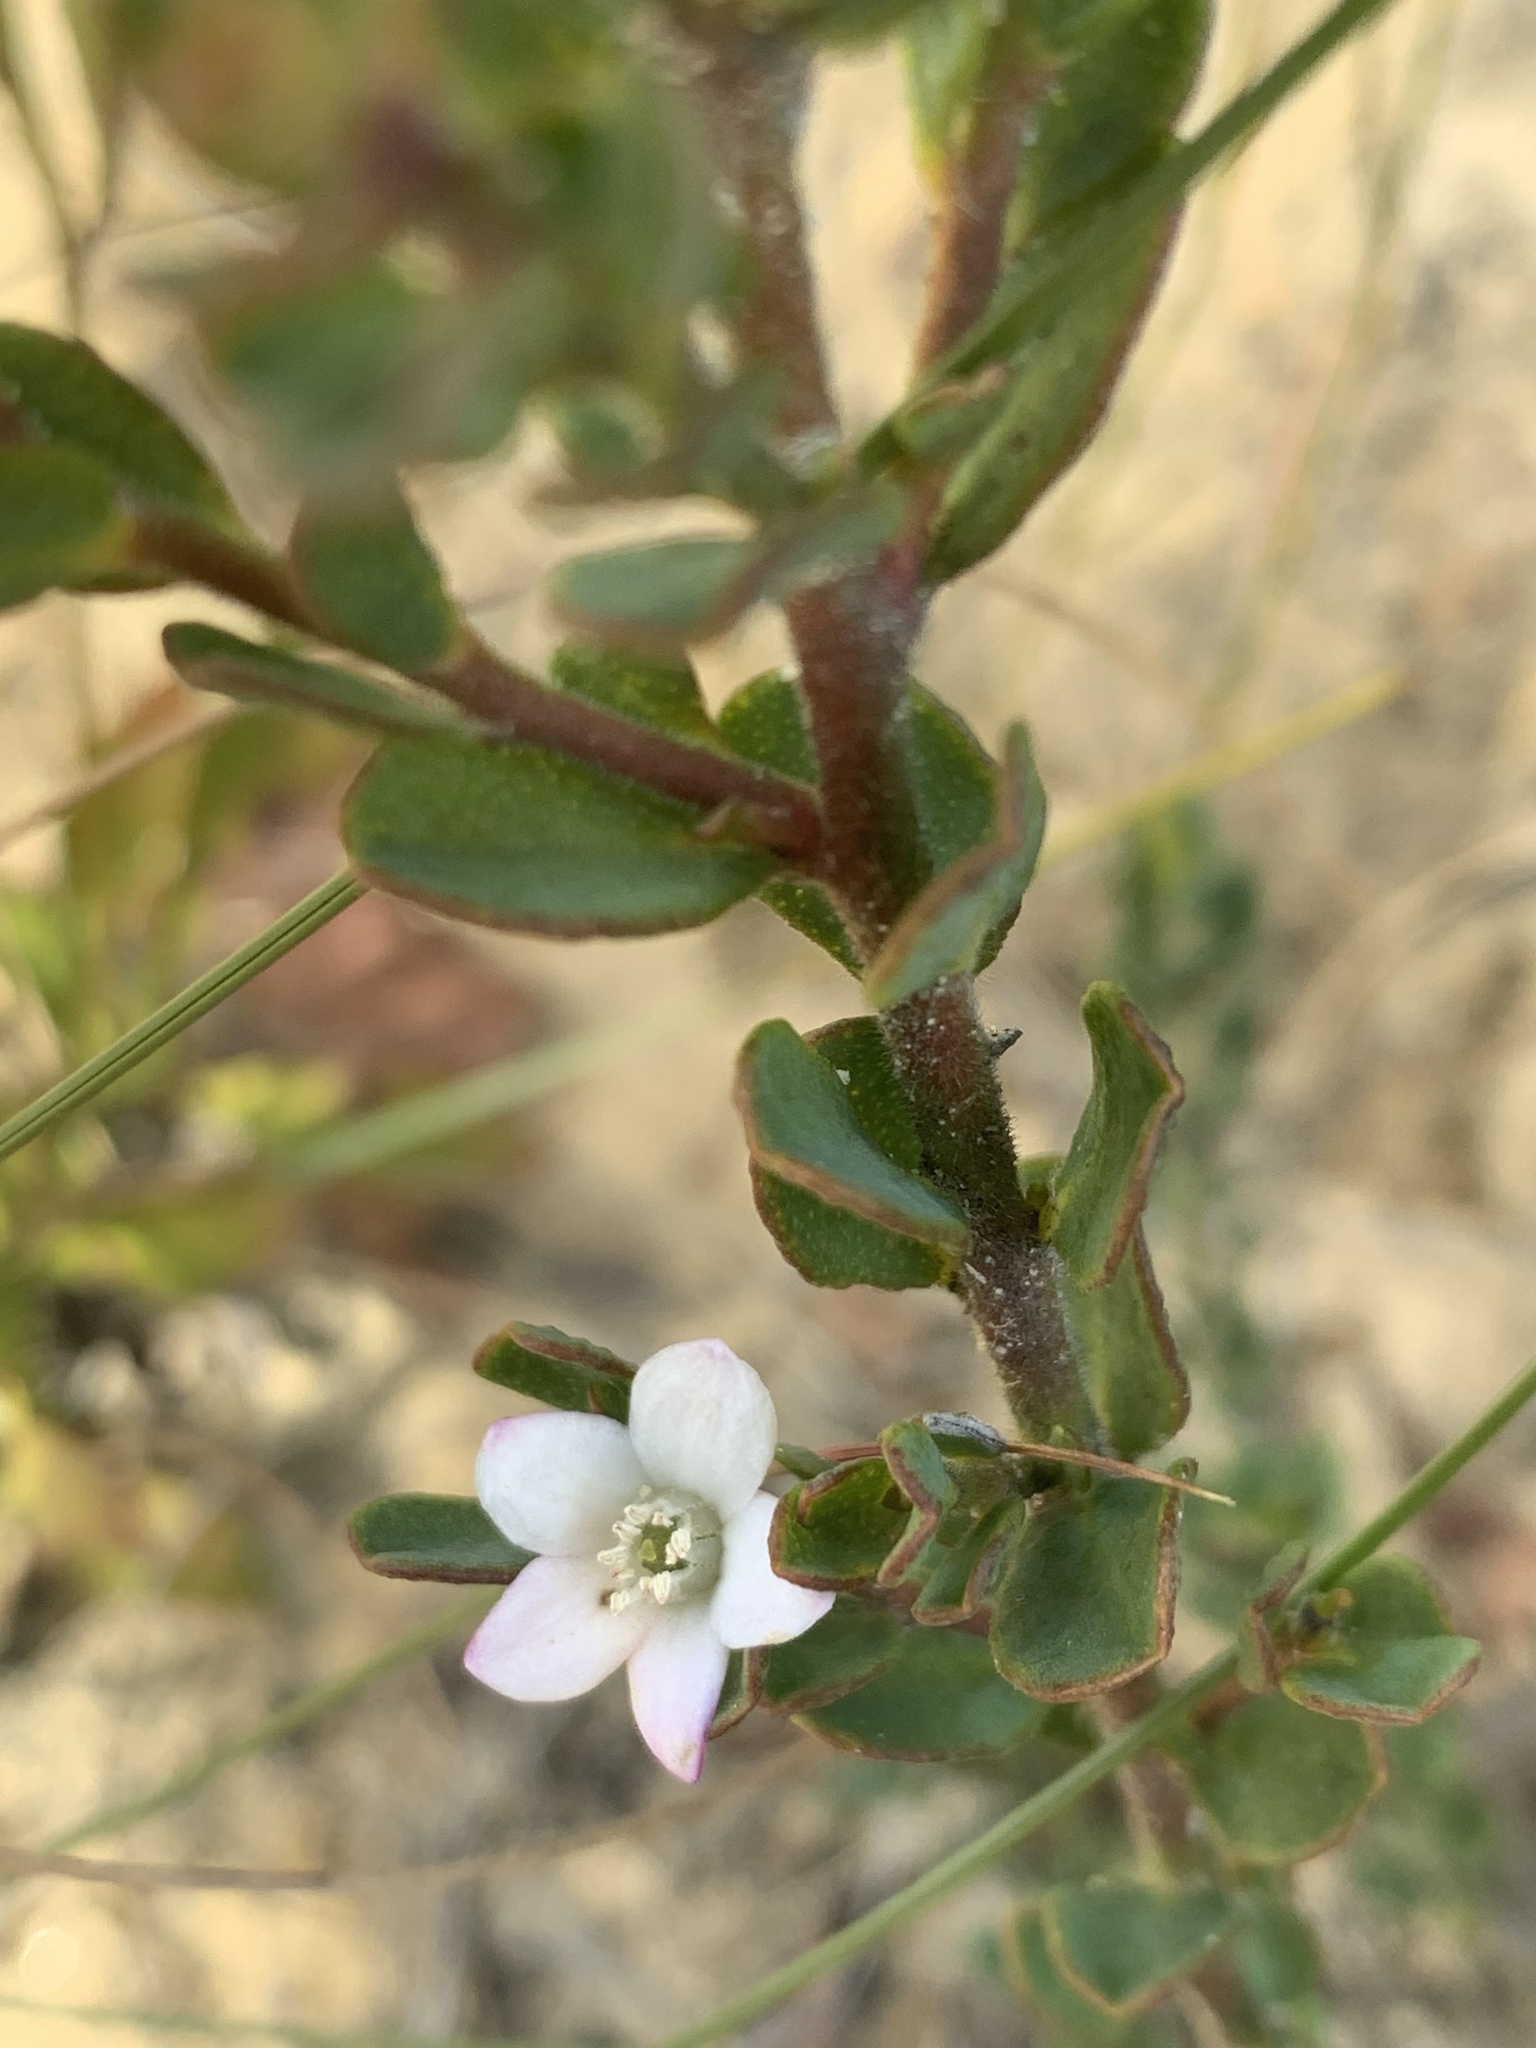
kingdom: Plantae
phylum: Tracheophyta
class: Magnoliopsida
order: Sapindales
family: Rutaceae
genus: Philotheca
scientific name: Philotheca obovalis
